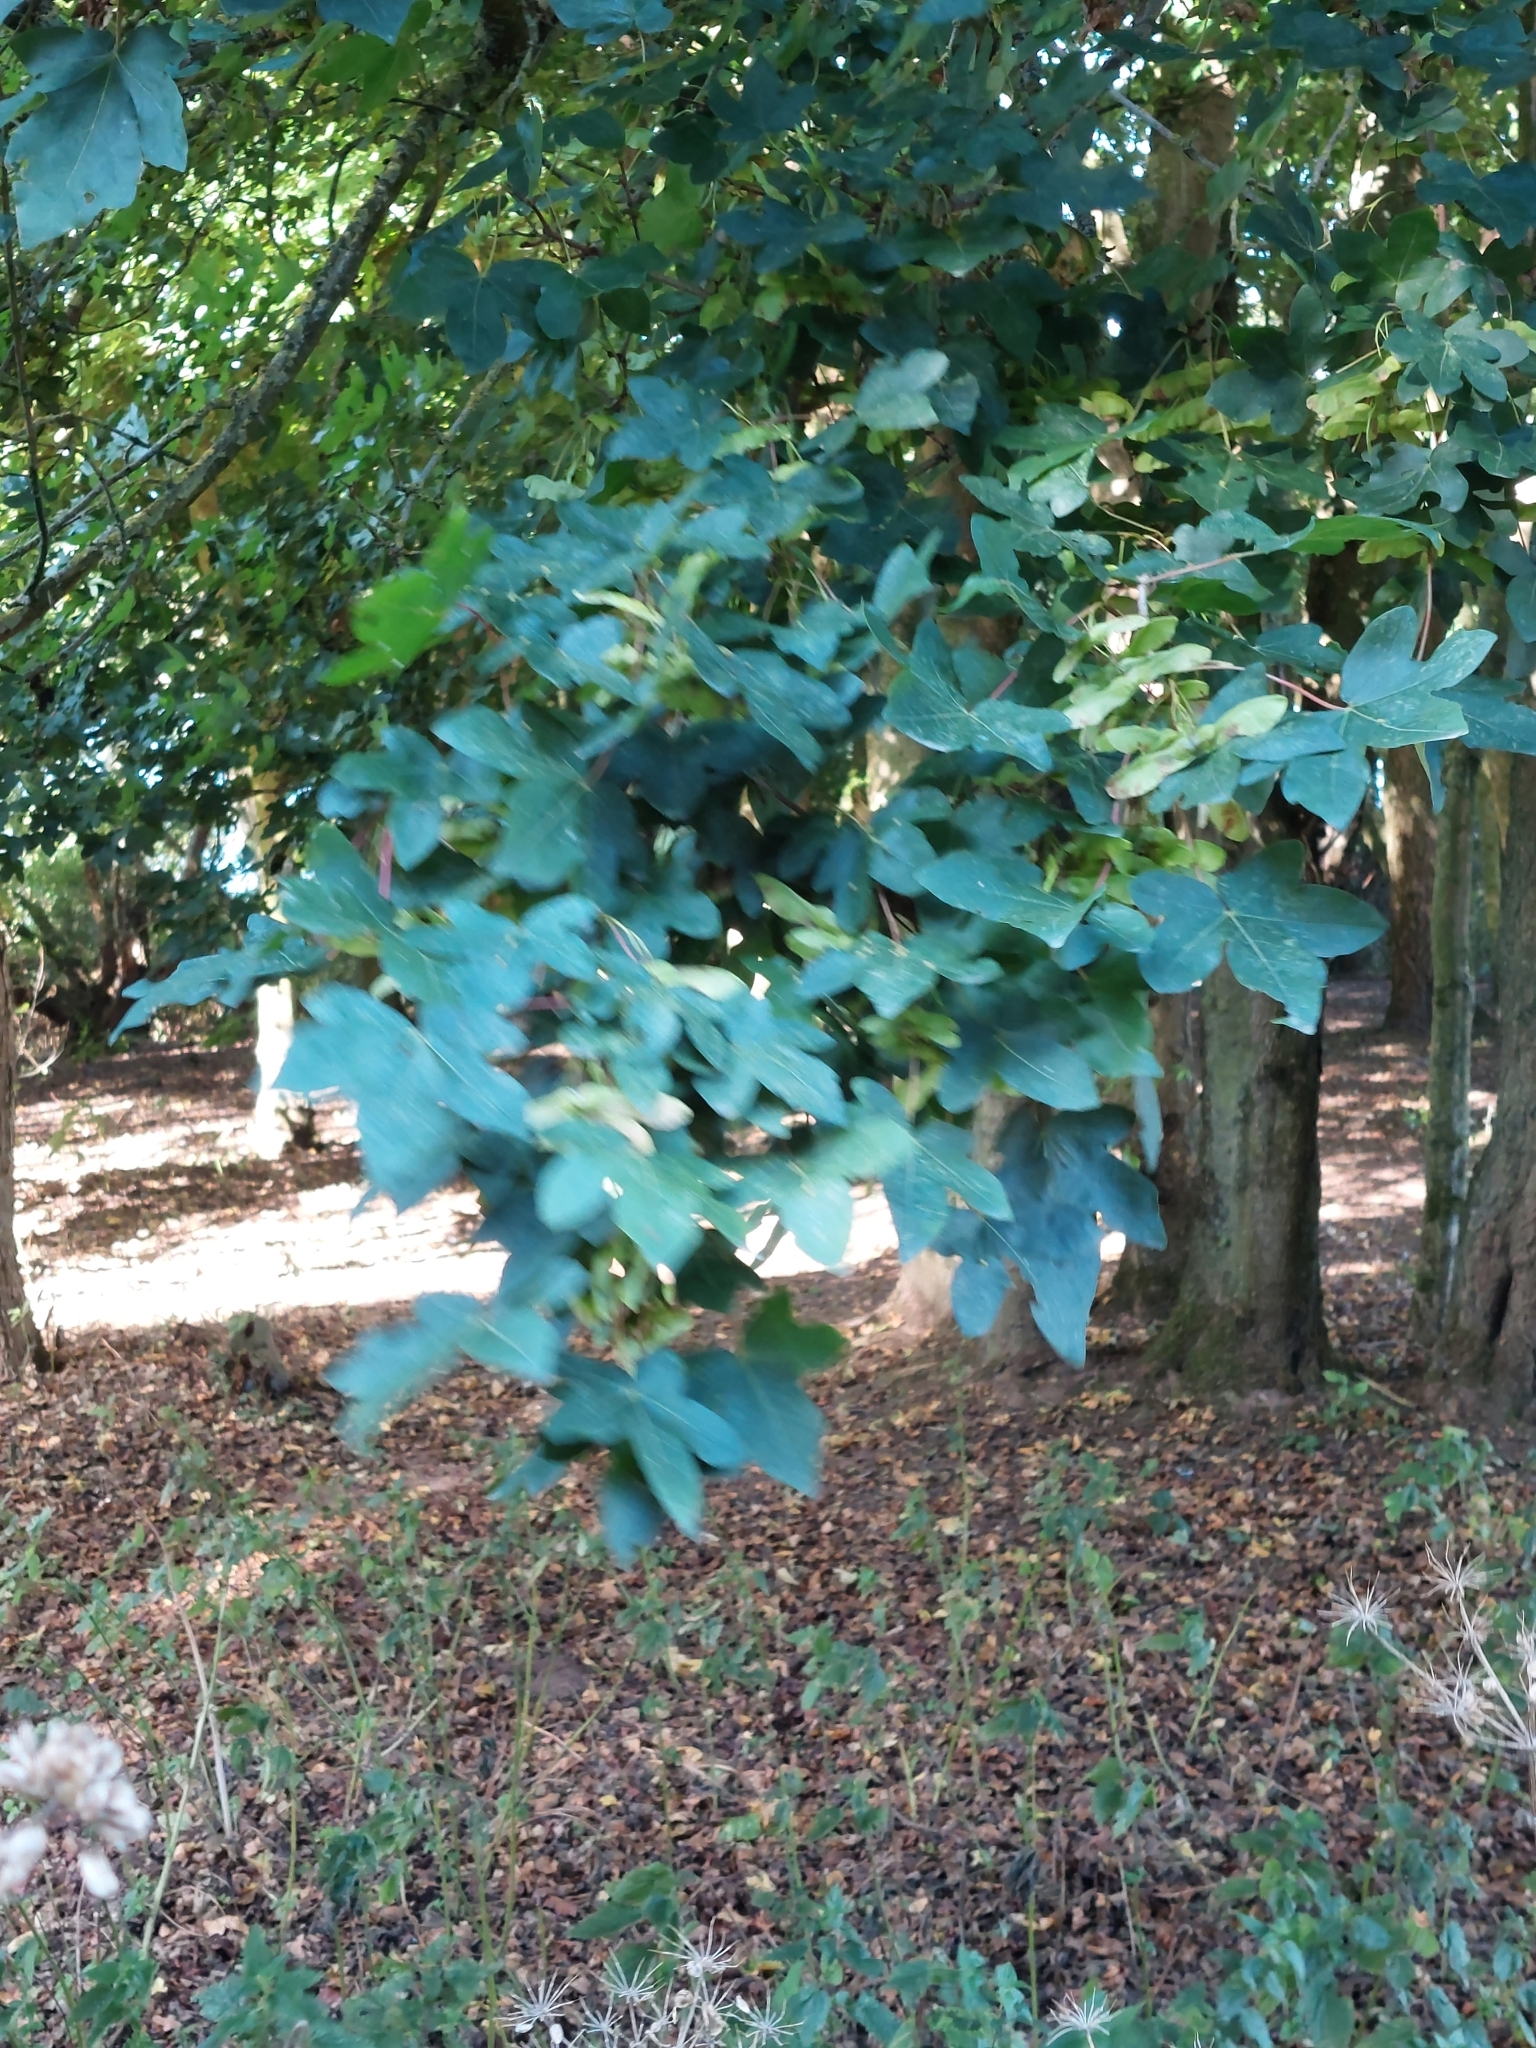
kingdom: Plantae
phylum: Tracheophyta
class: Magnoliopsida
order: Sapindales
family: Sapindaceae
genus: Acer
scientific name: Acer campestre
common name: Field maple
